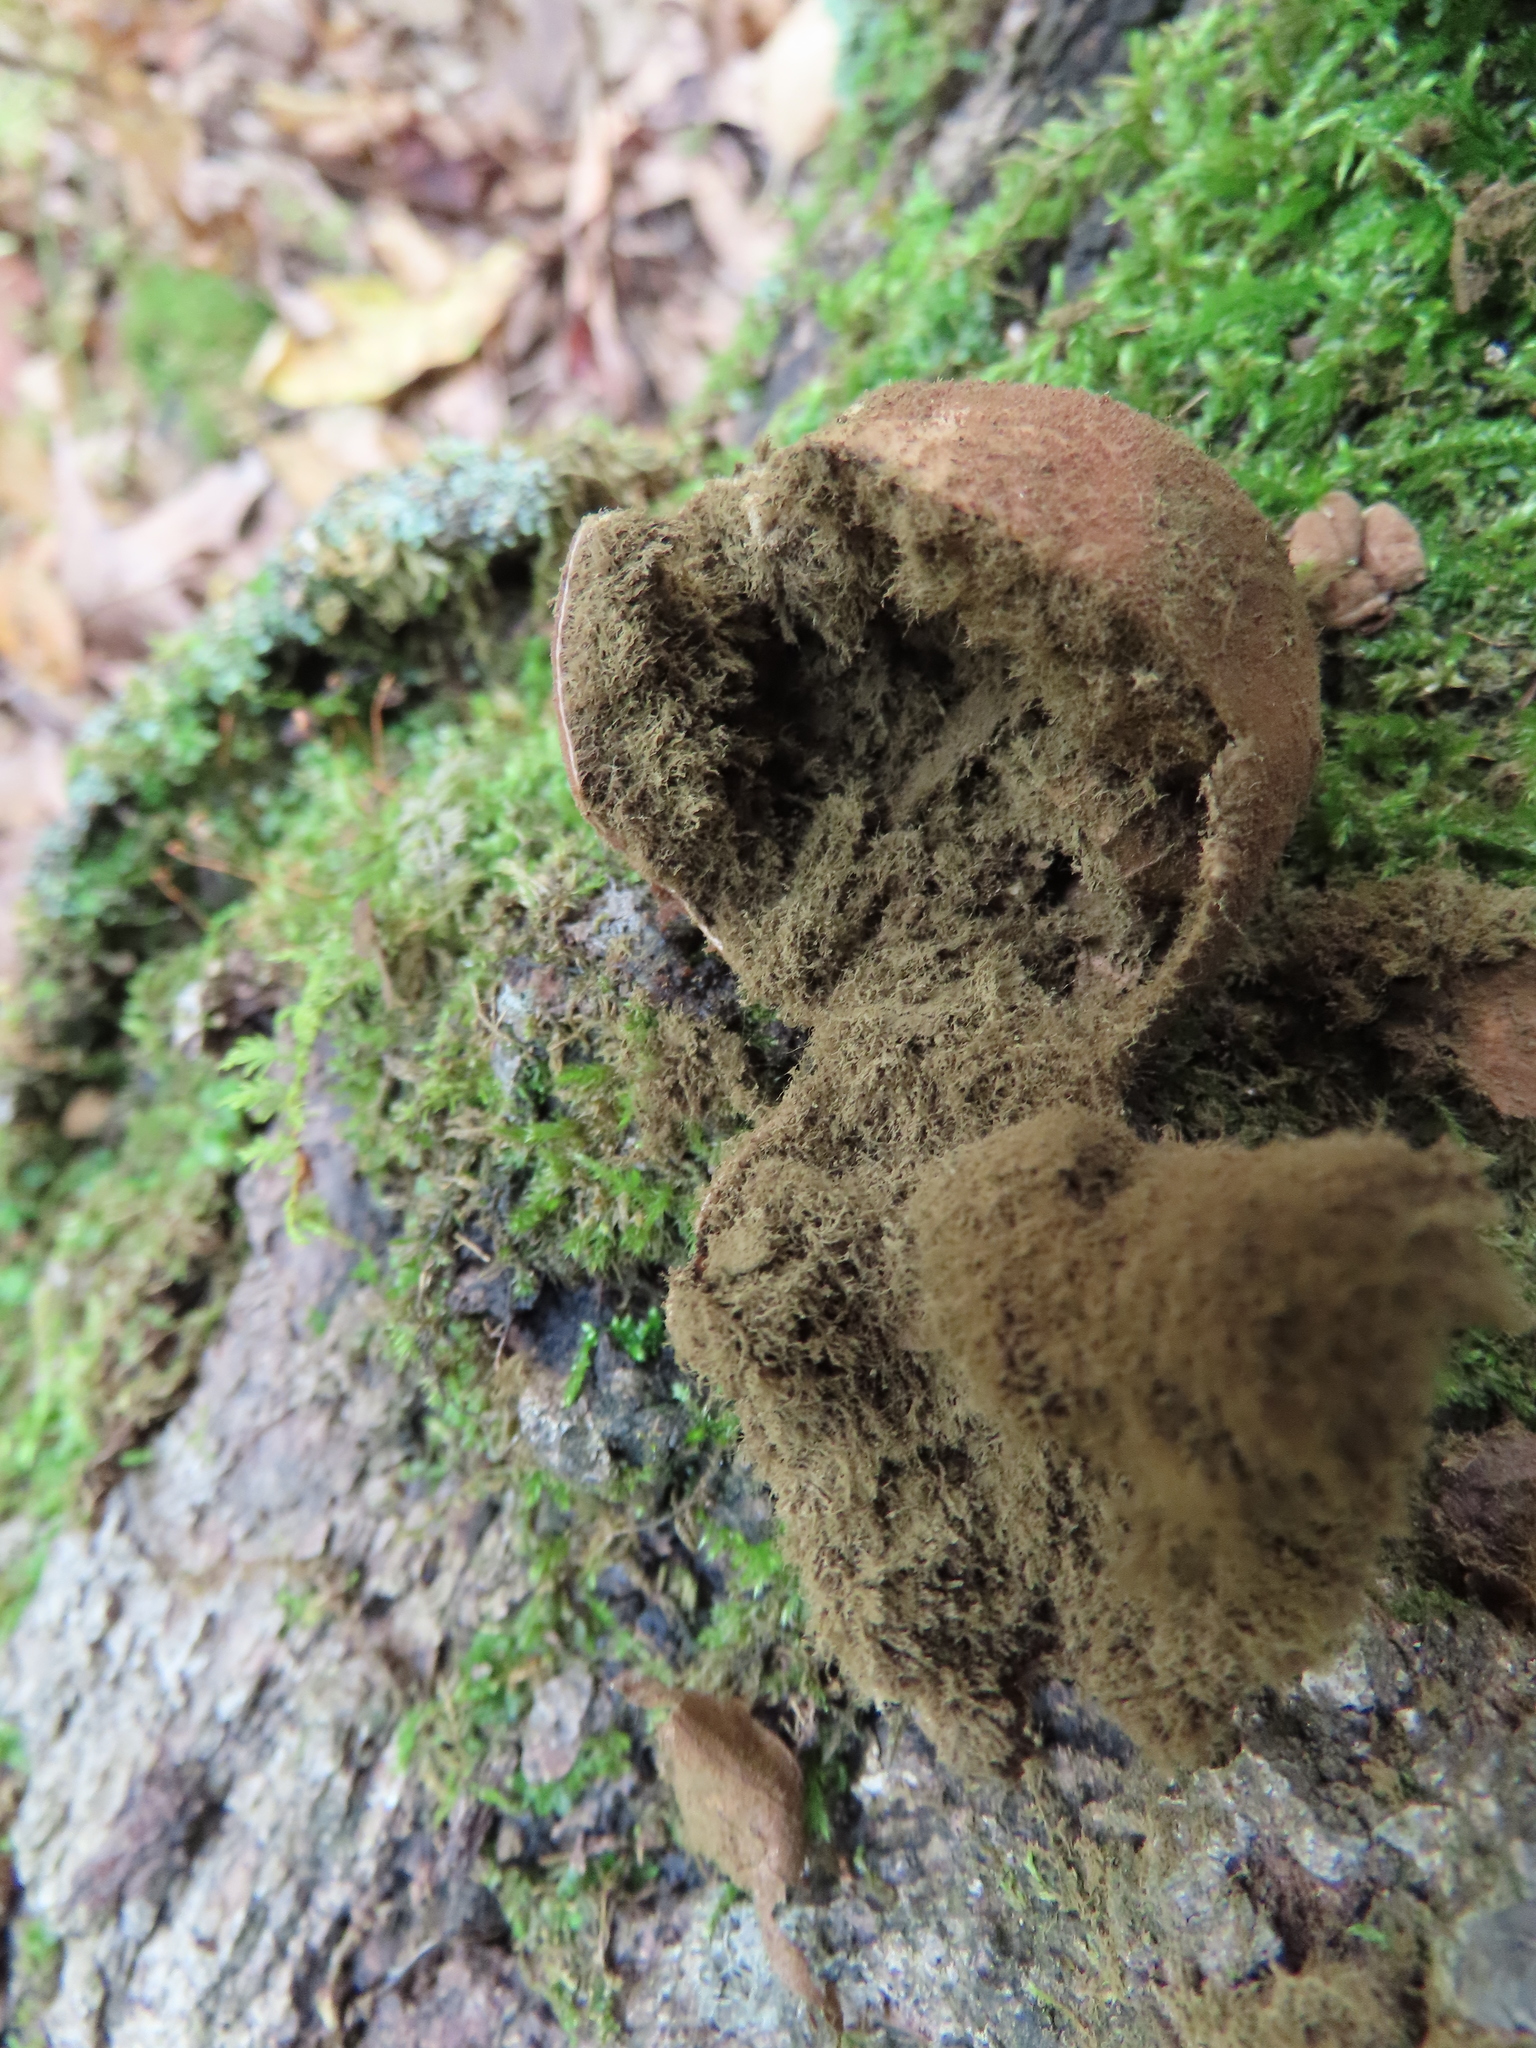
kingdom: Fungi
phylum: Basidiomycota
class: Agaricomycetes
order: Agaricales
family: Lycoperdaceae
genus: Apioperdon
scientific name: Apioperdon pyriforme
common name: Pear-shaped puffball
